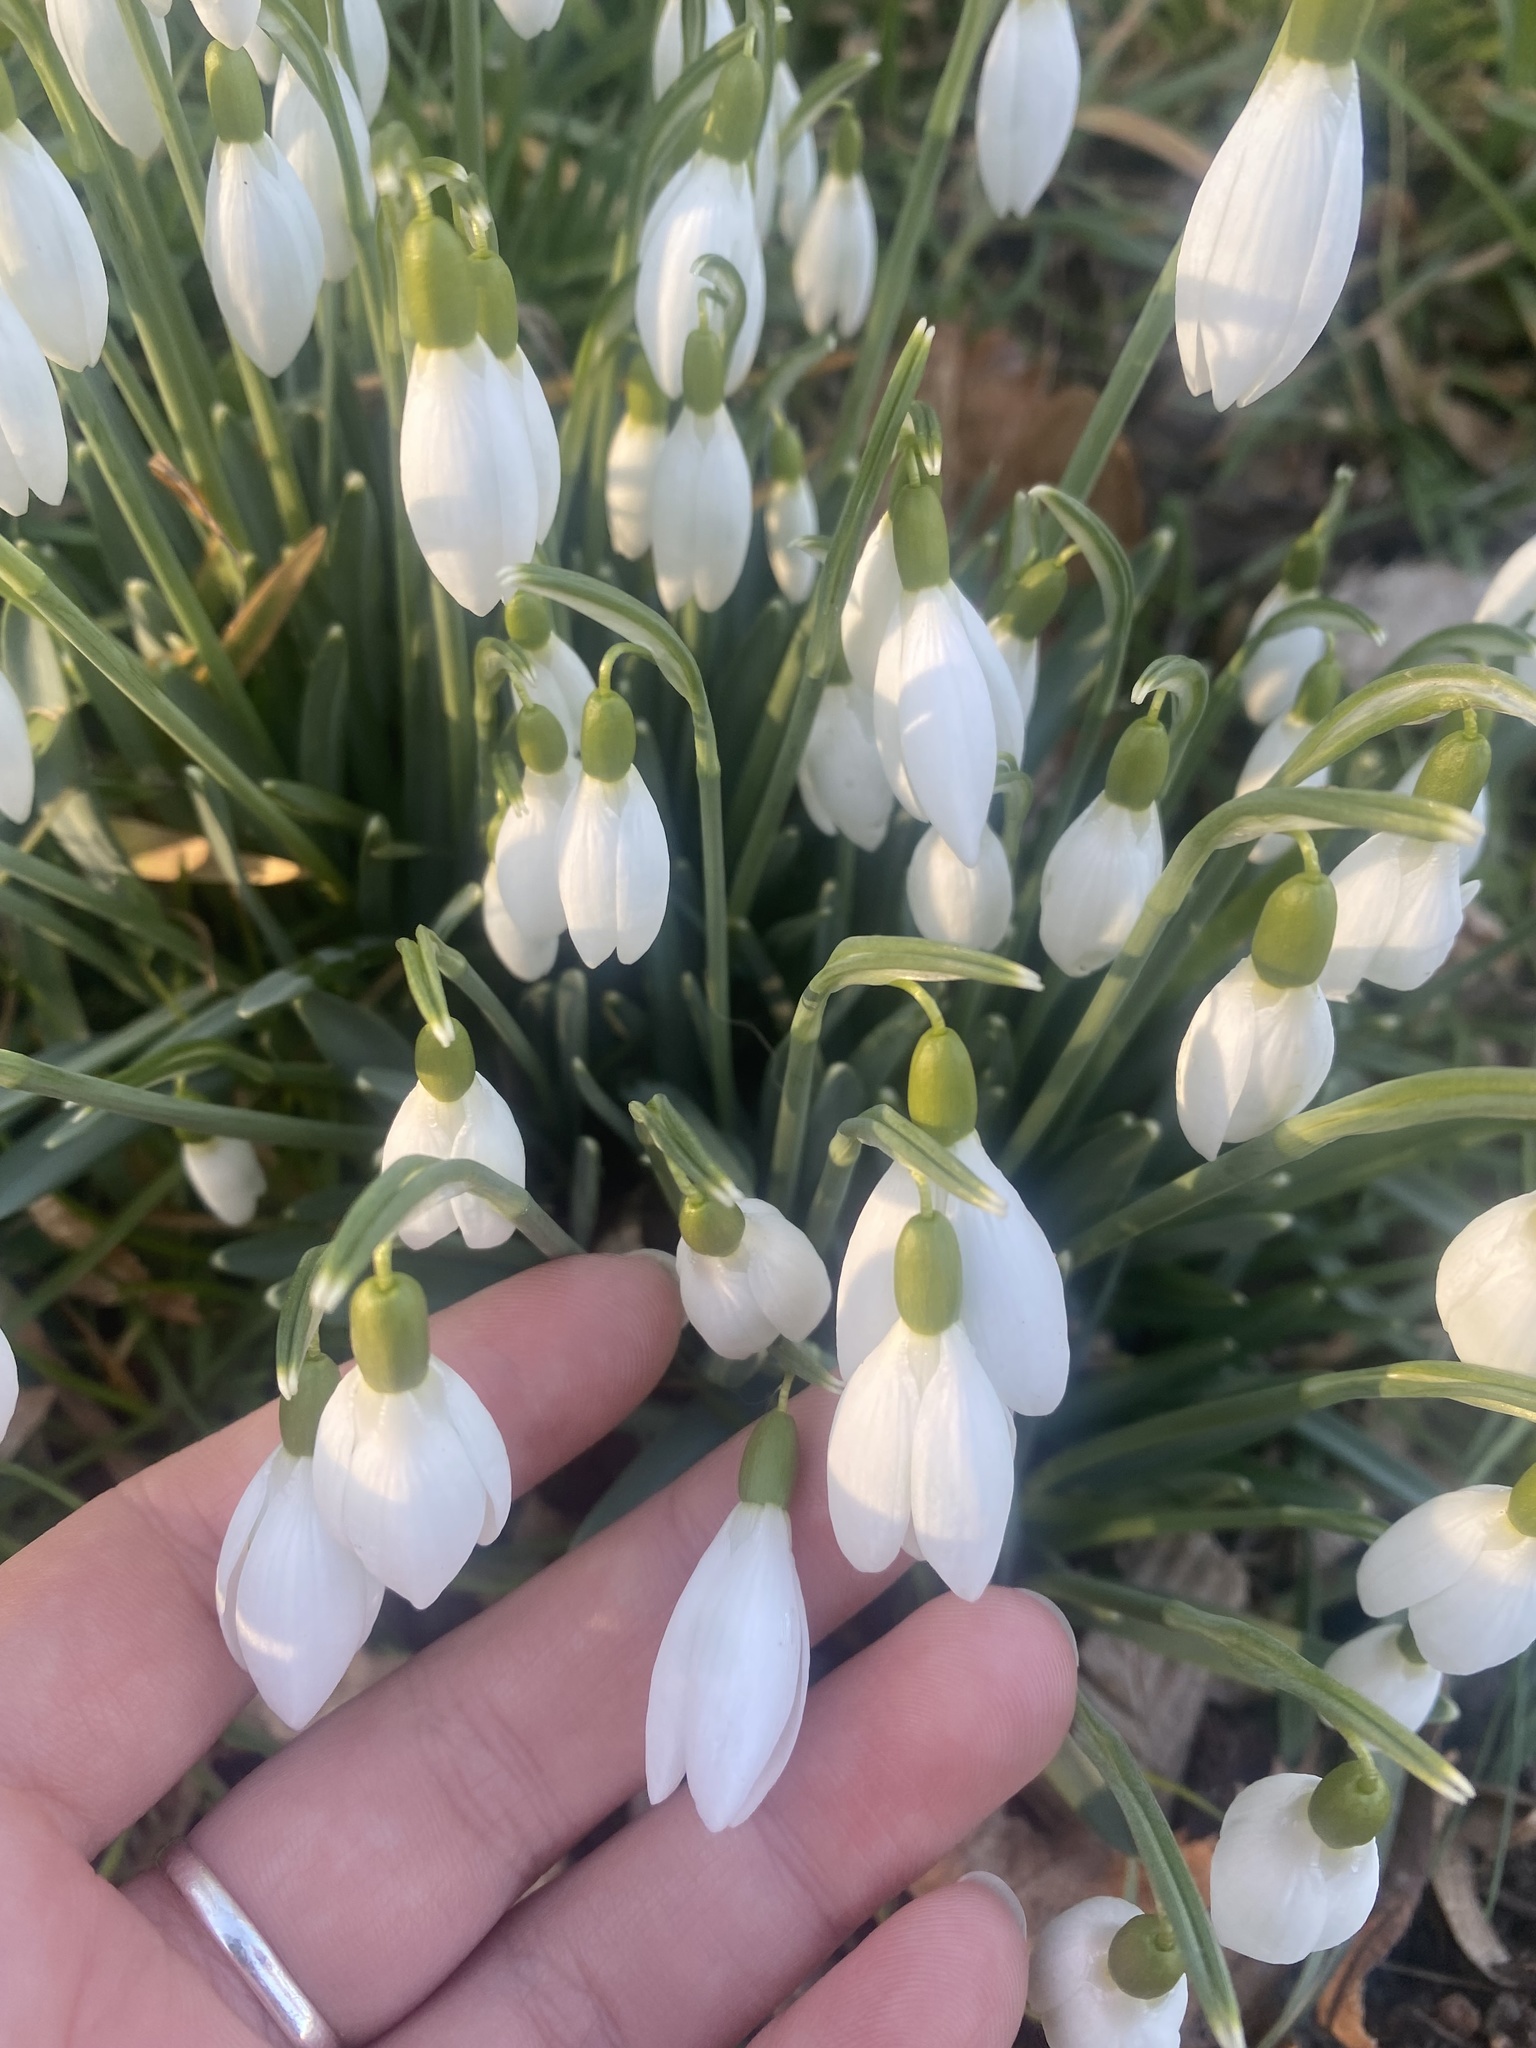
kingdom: Plantae
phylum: Tracheophyta
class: Liliopsida
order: Asparagales
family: Amaryllidaceae
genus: Galanthus
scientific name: Galanthus nivalis
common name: Snowdrop
